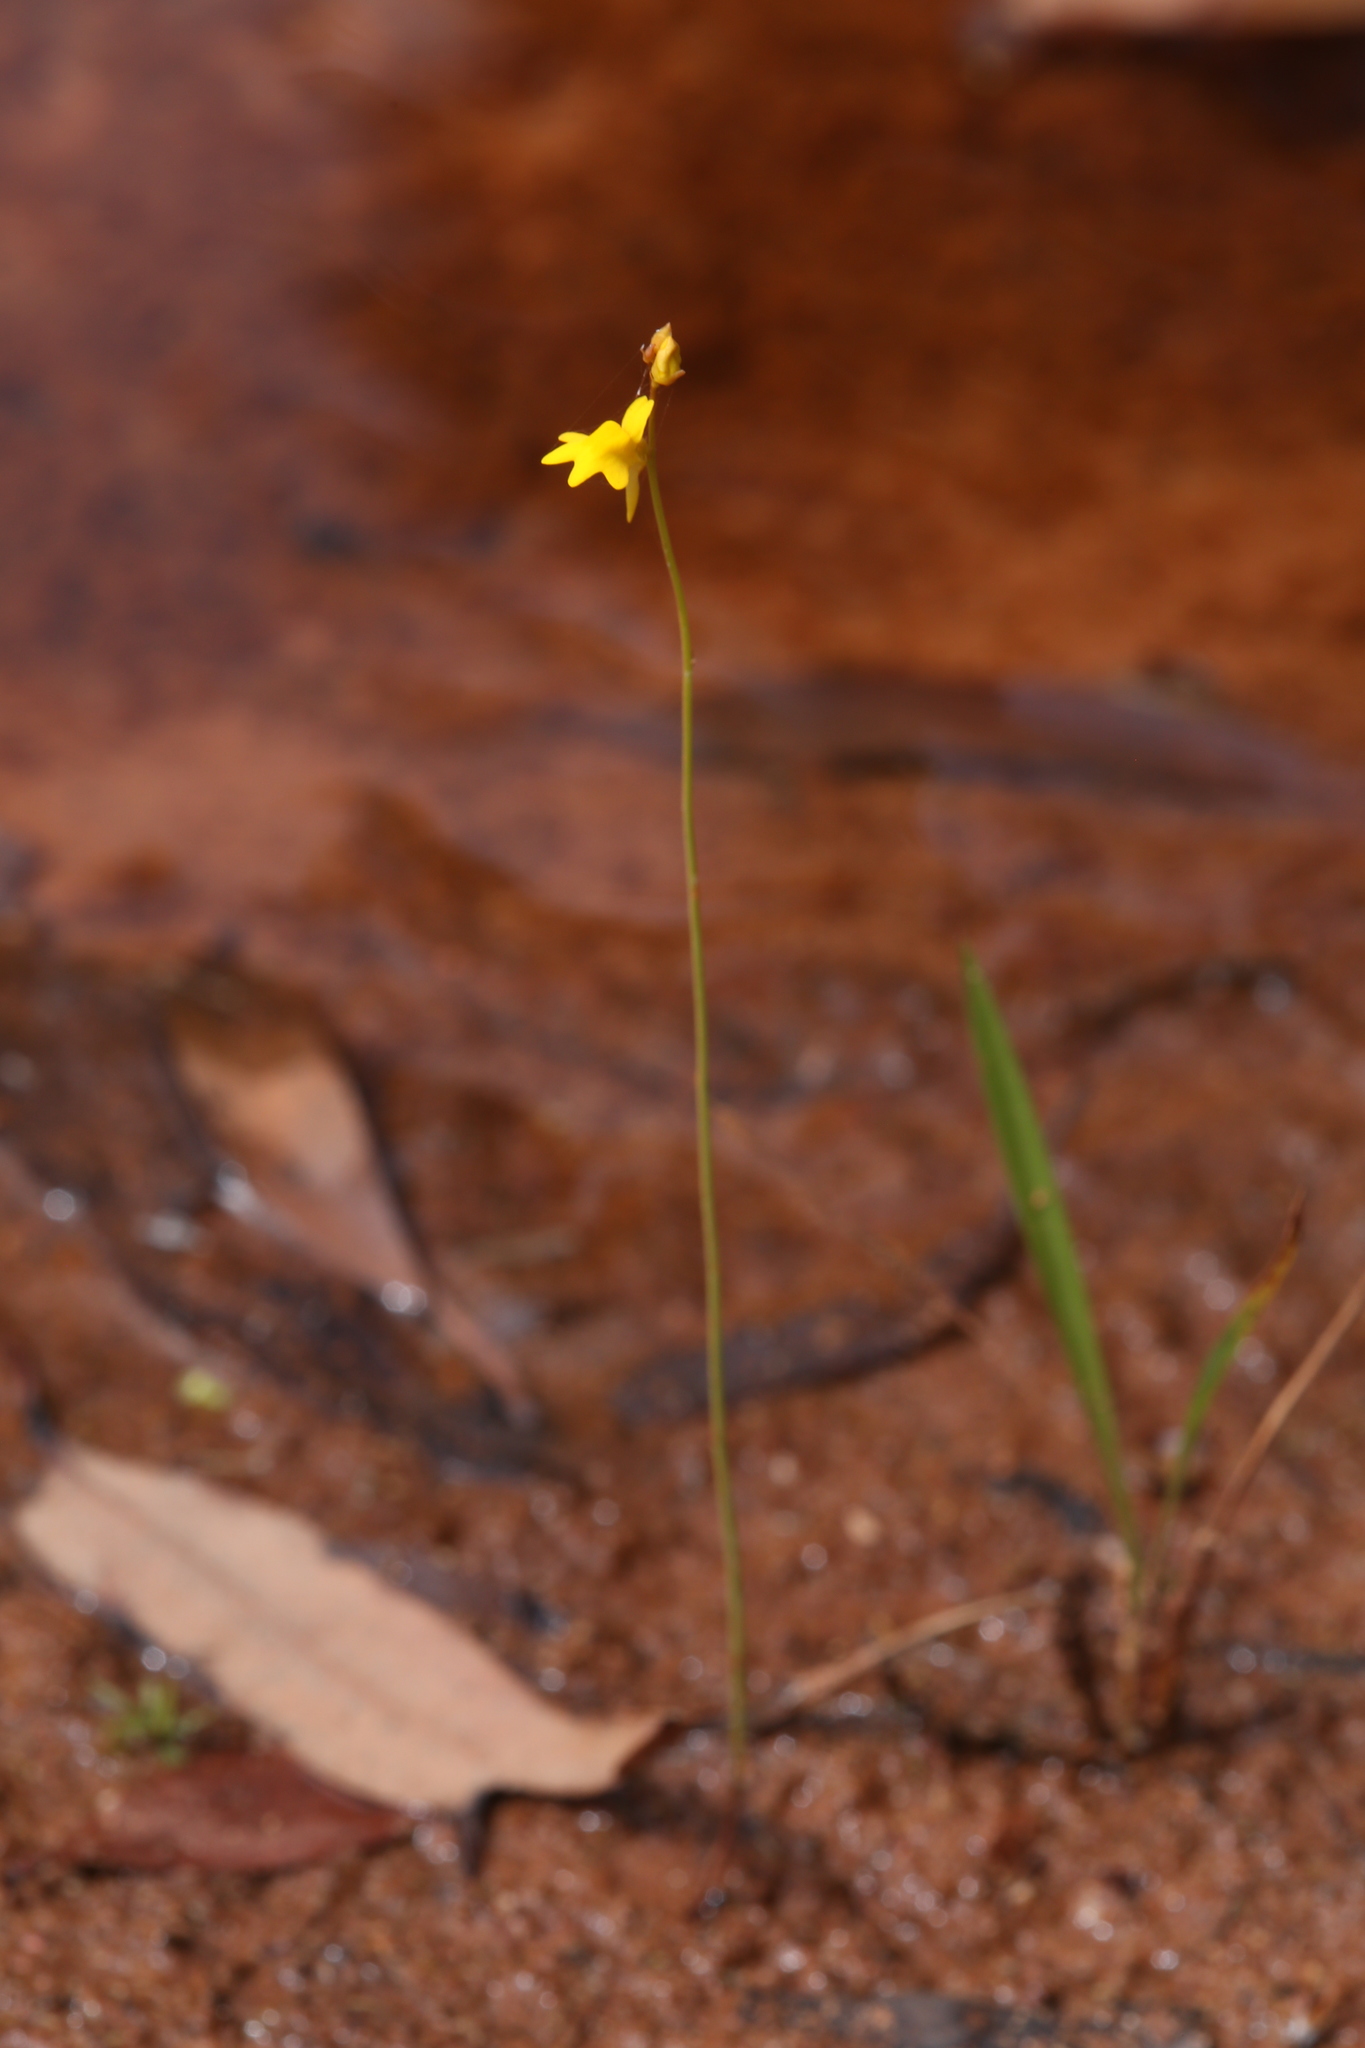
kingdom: Plantae
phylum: Tracheophyta
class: Magnoliopsida
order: Lamiales
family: Lentibulariaceae
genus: Utricularia
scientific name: Utricularia chrysantha
